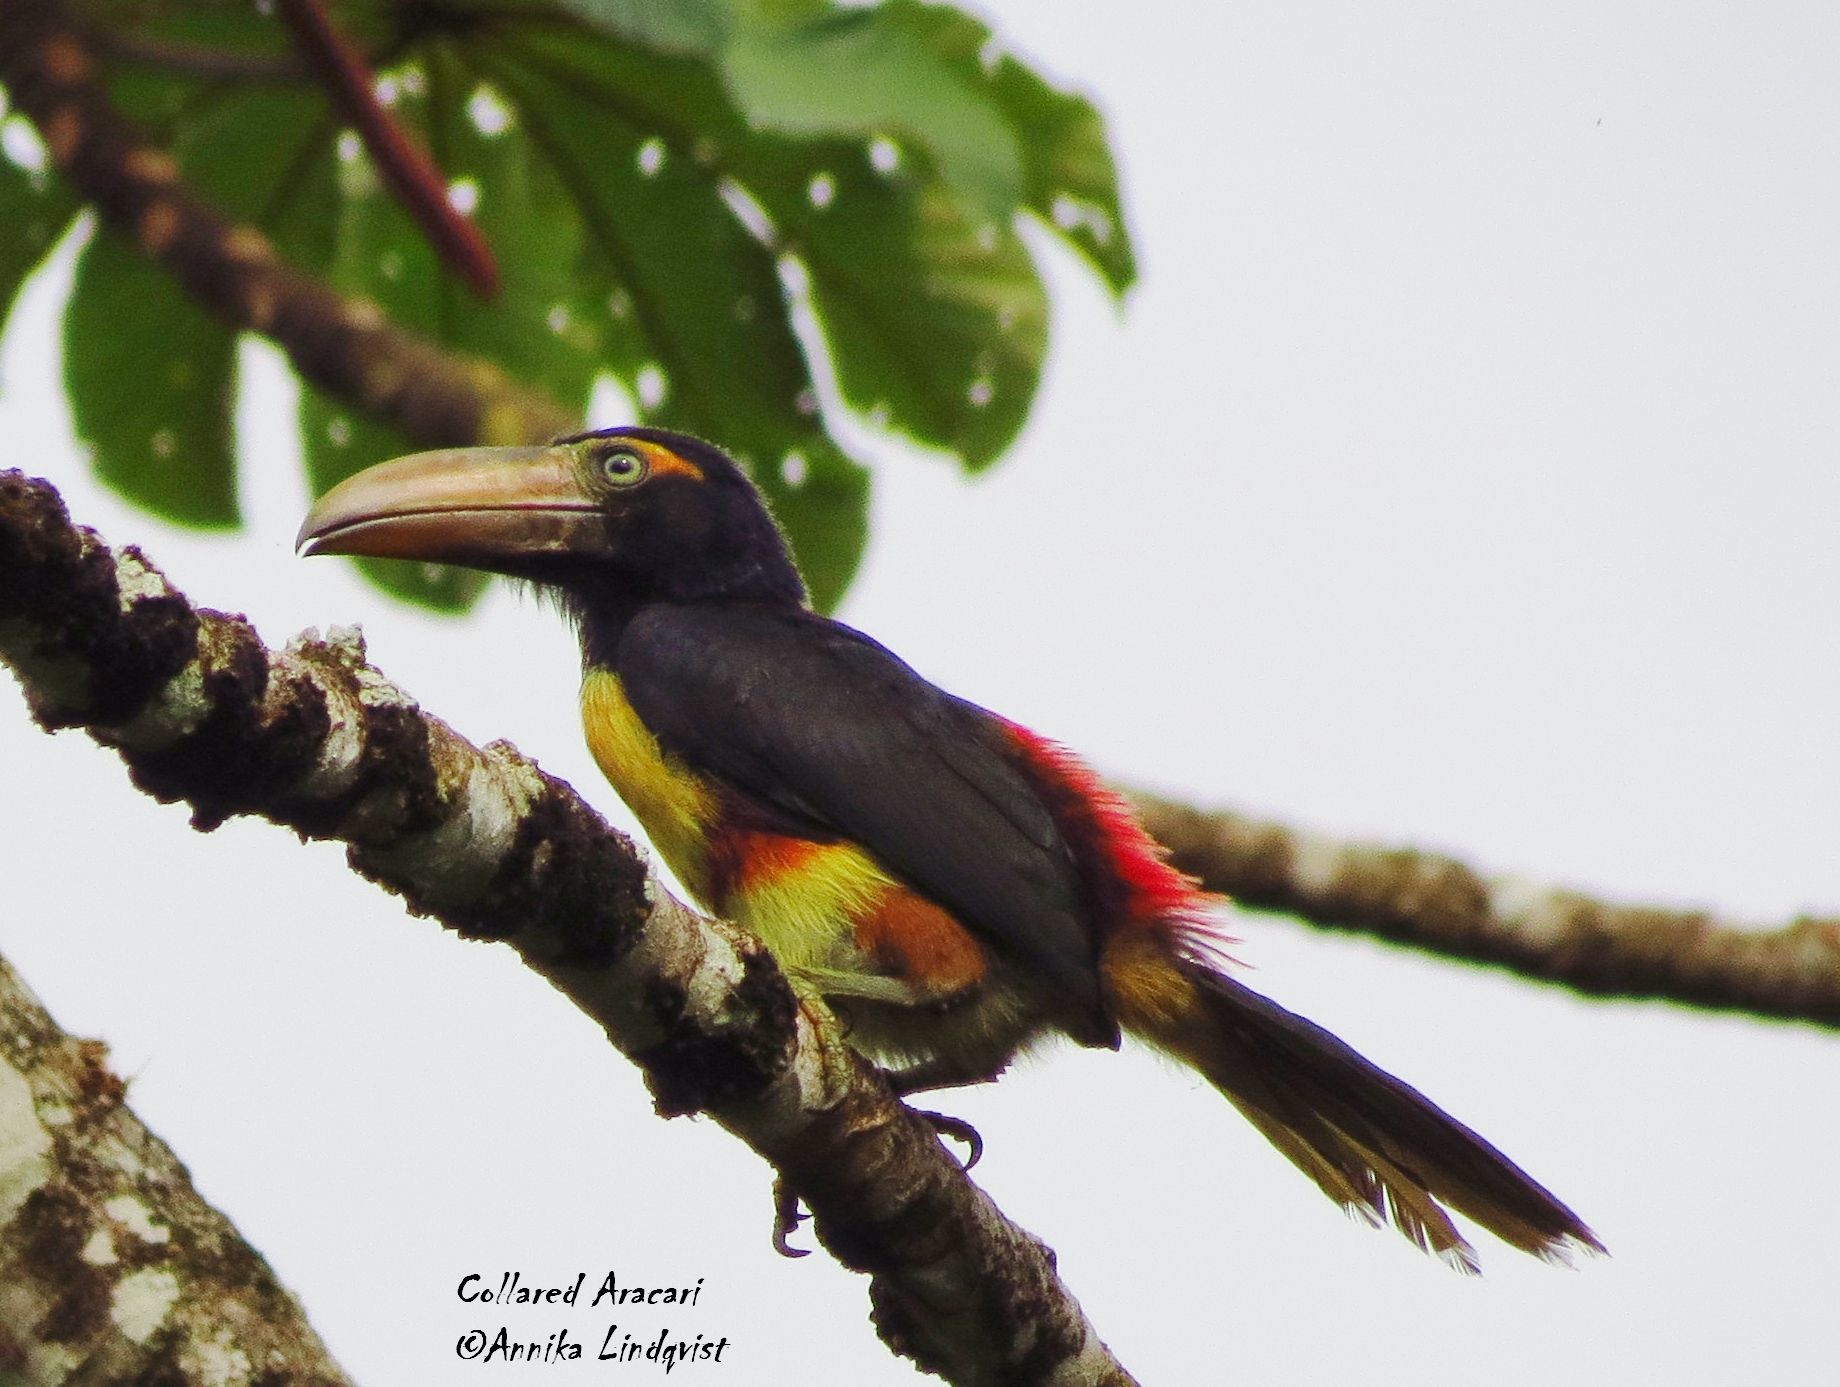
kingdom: Animalia
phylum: Chordata
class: Aves
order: Piciformes
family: Ramphastidae
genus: Pteroglossus
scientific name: Pteroglossus torquatus
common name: Collared aracari
